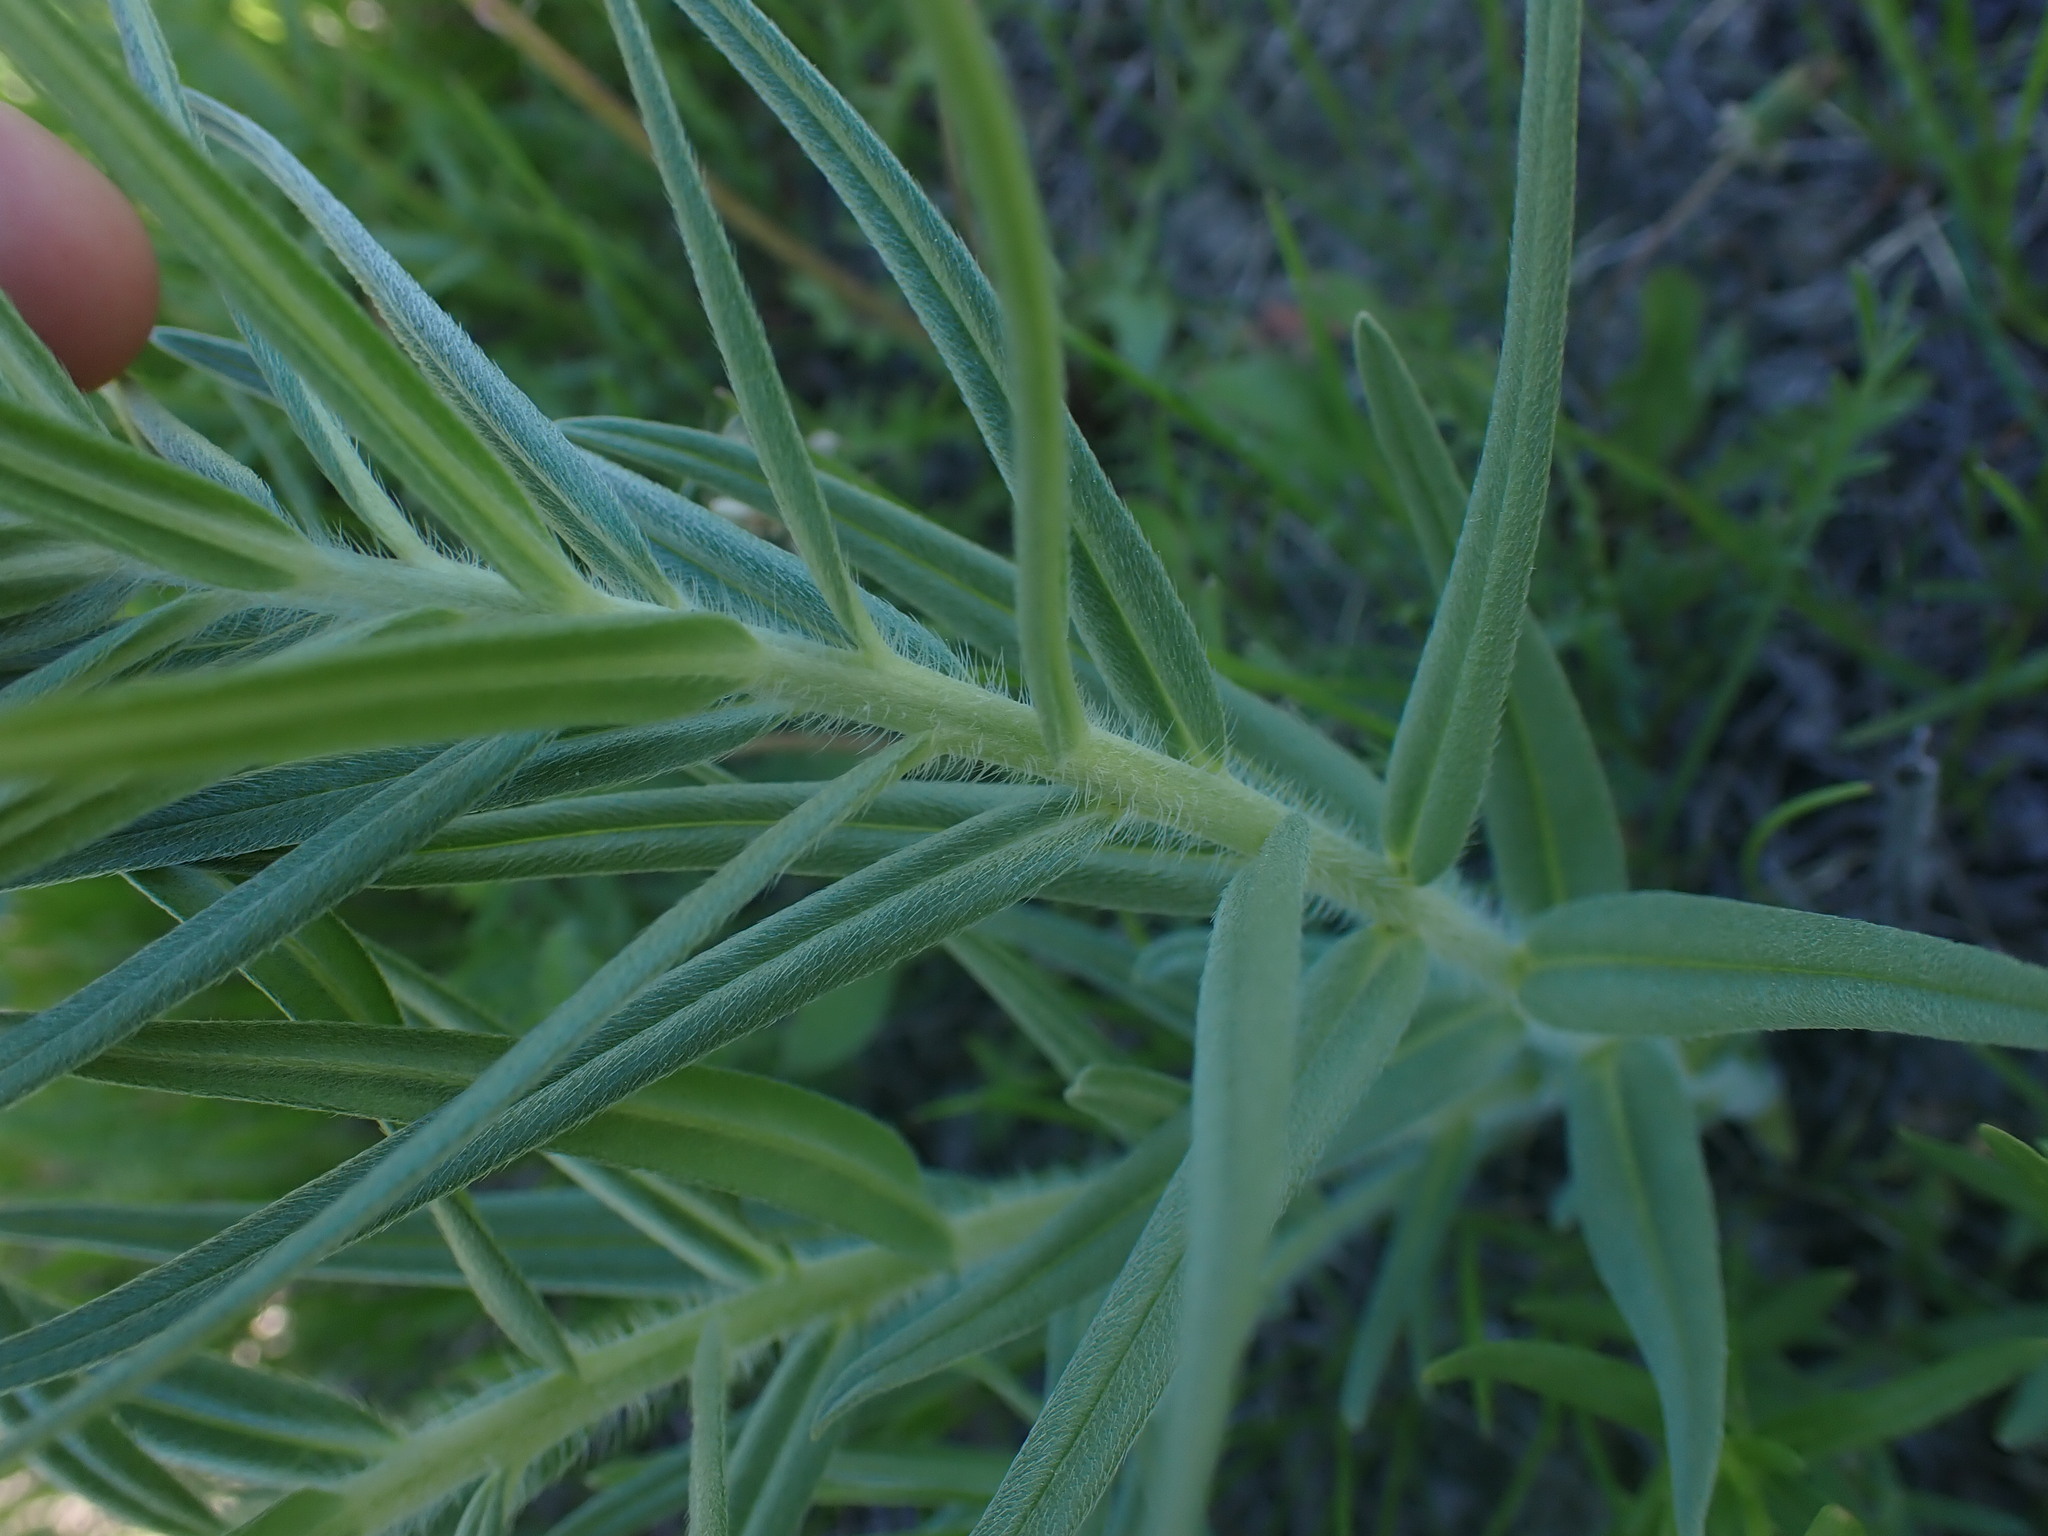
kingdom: Plantae
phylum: Tracheophyta
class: Magnoliopsida
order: Boraginales
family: Boraginaceae
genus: Lithospermum
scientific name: Lithospermum ruderale
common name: Western gromwell
